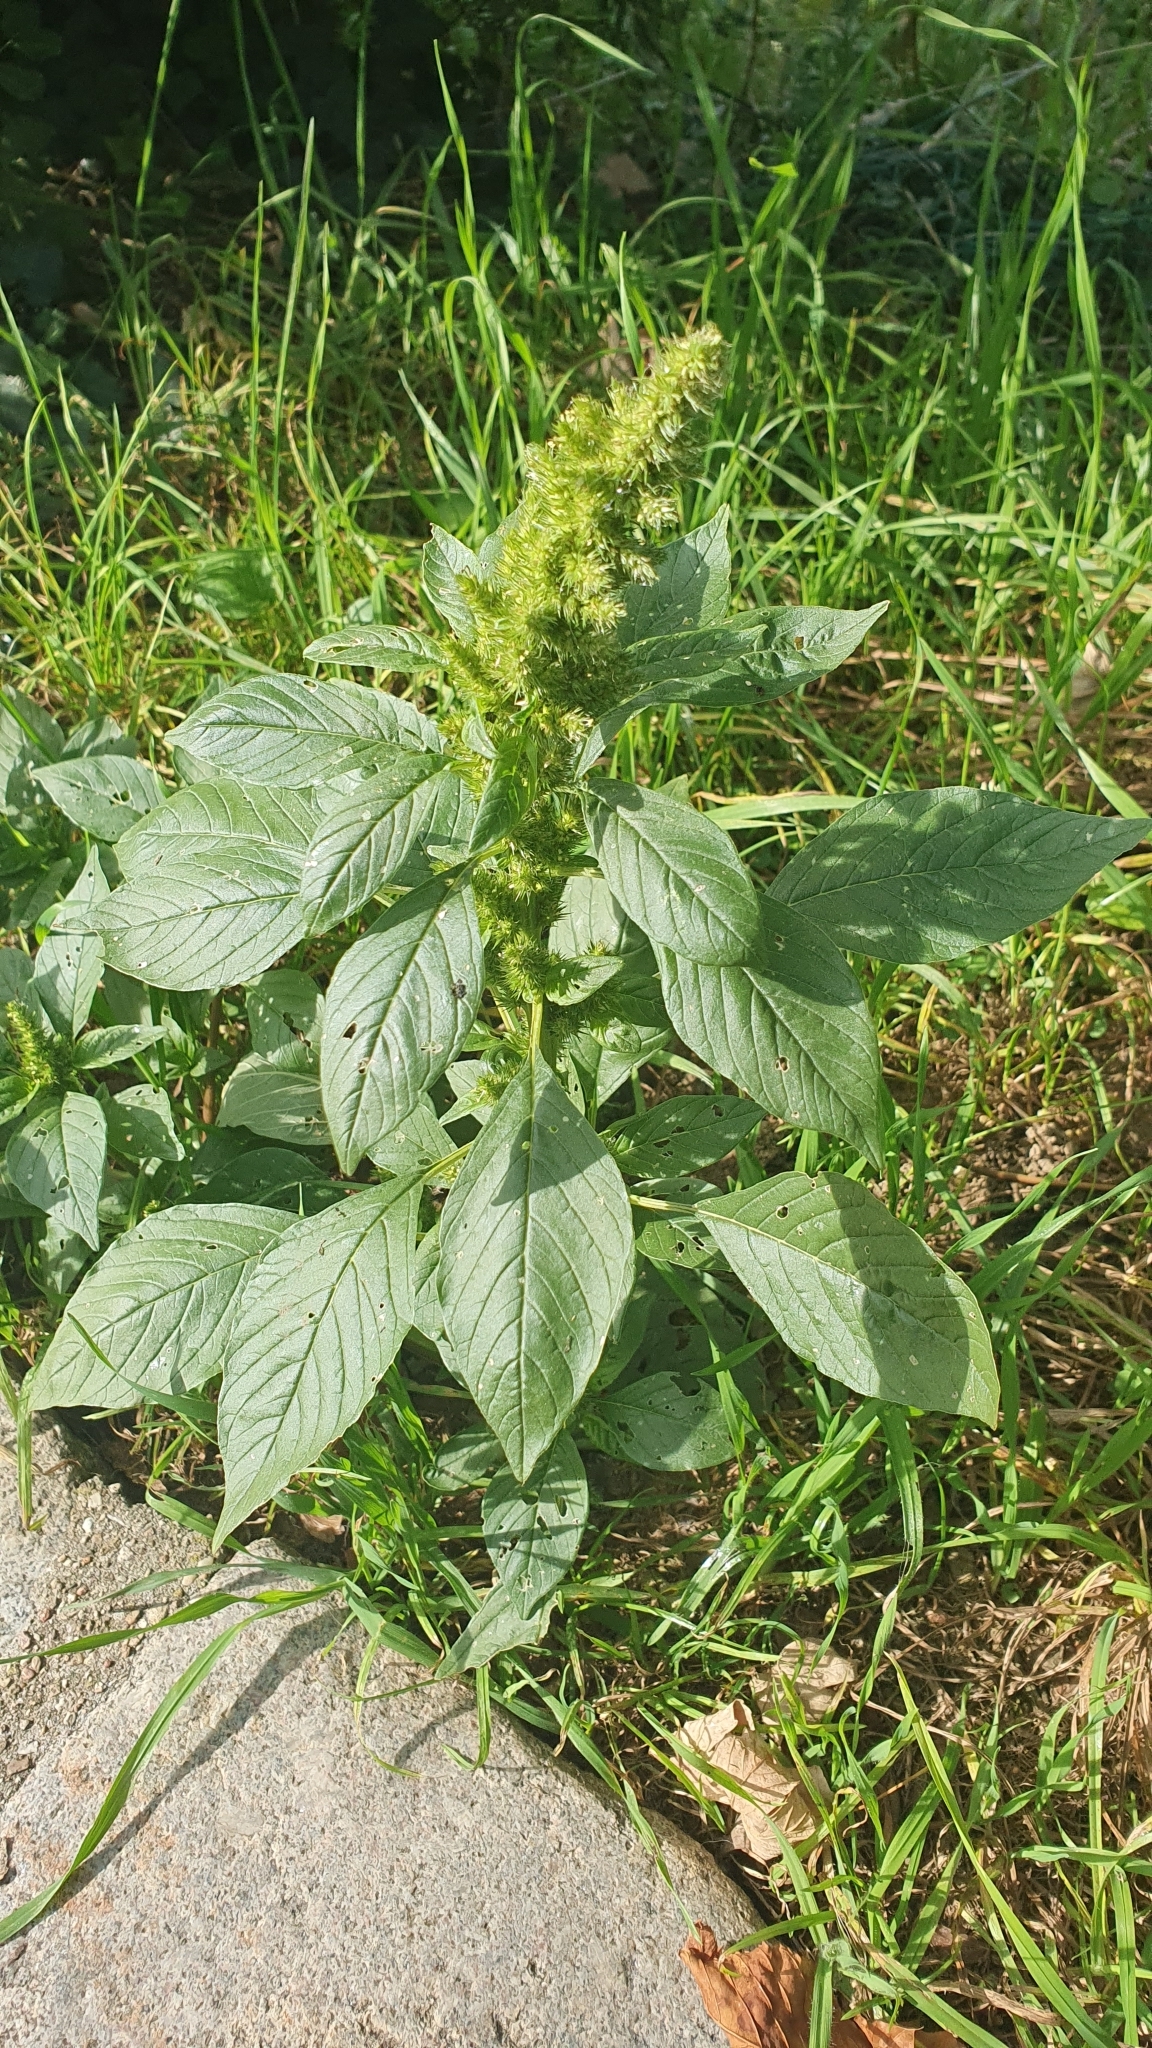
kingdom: Plantae
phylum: Tracheophyta
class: Magnoliopsida
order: Caryophyllales
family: Amaranthaceae
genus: Amaranthus
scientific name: Amaranthus retroflexus
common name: Redroot amaranth
